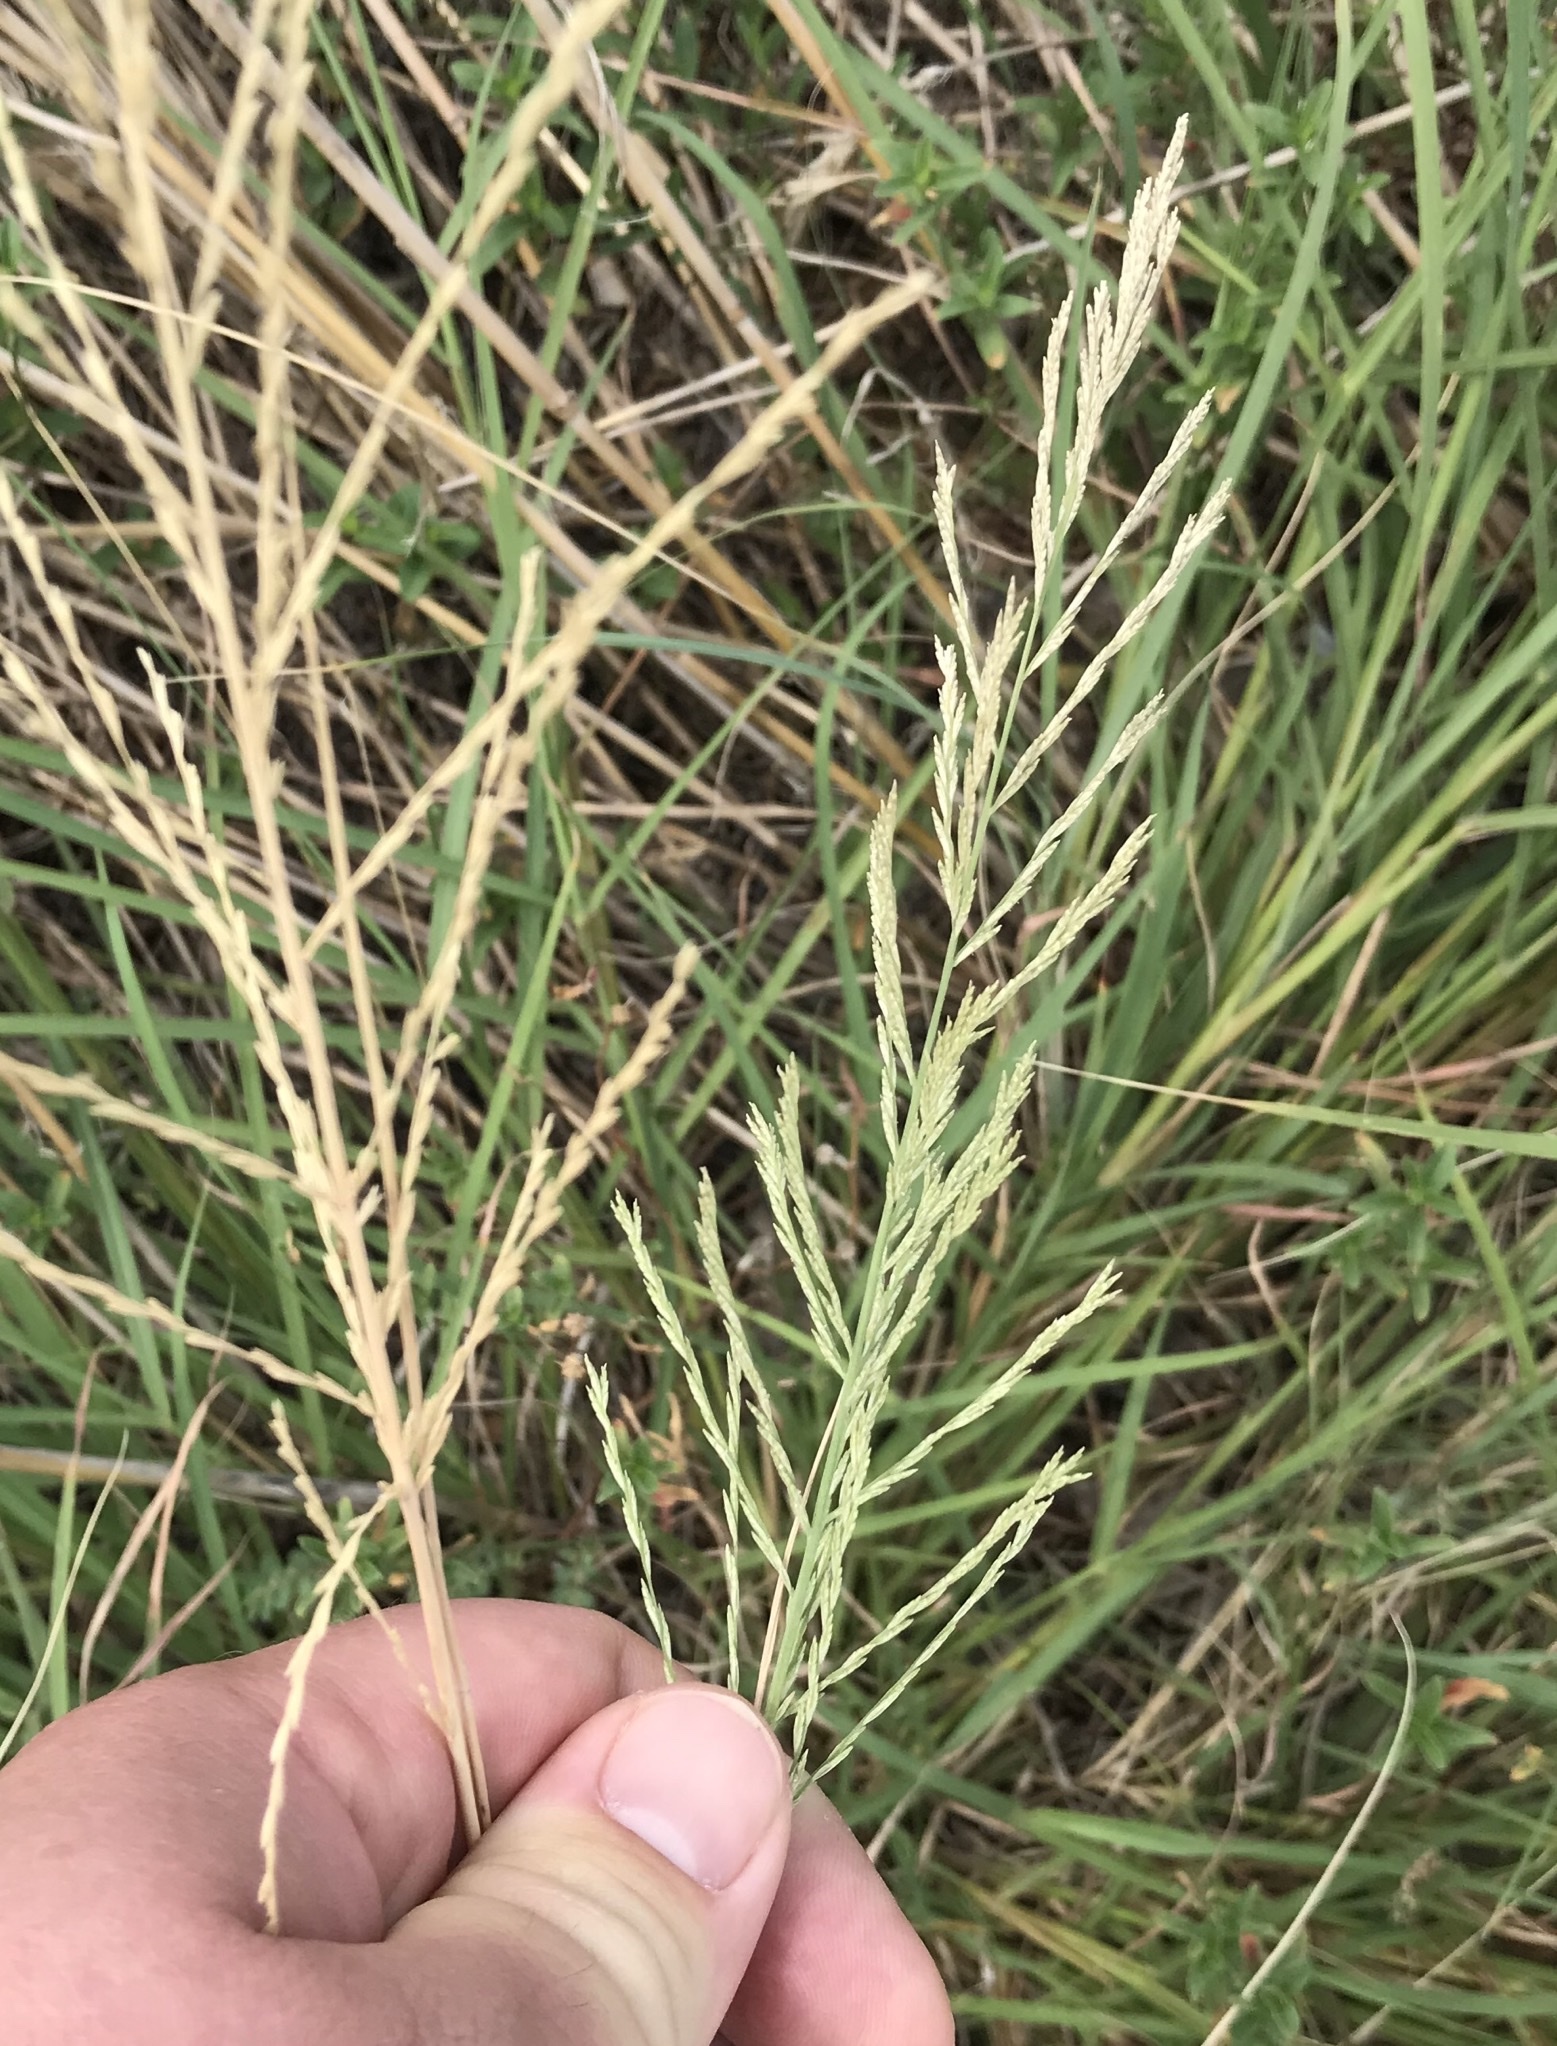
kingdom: Plantae
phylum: Tracheophyta
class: Liliopsida
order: Poales
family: Poaceae
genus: Diplachne
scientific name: Diplachne fusca
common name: Brown beetle grass
